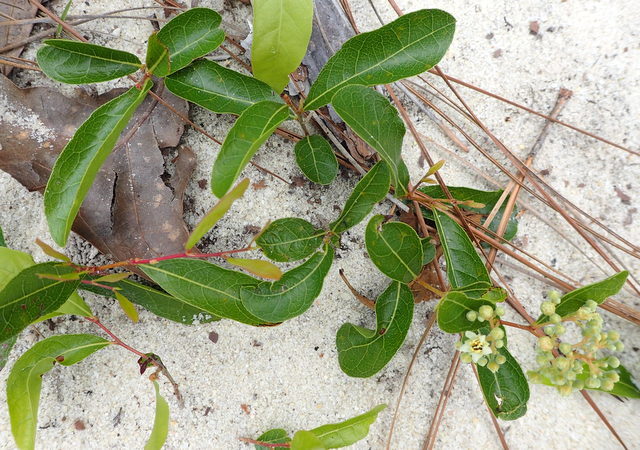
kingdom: Plantae
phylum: Tracheophyta
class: Magnoliopsida
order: Malpighiales
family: Chrysobalanaceae
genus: Geobalanus
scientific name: Geobalanus oblongifolius
